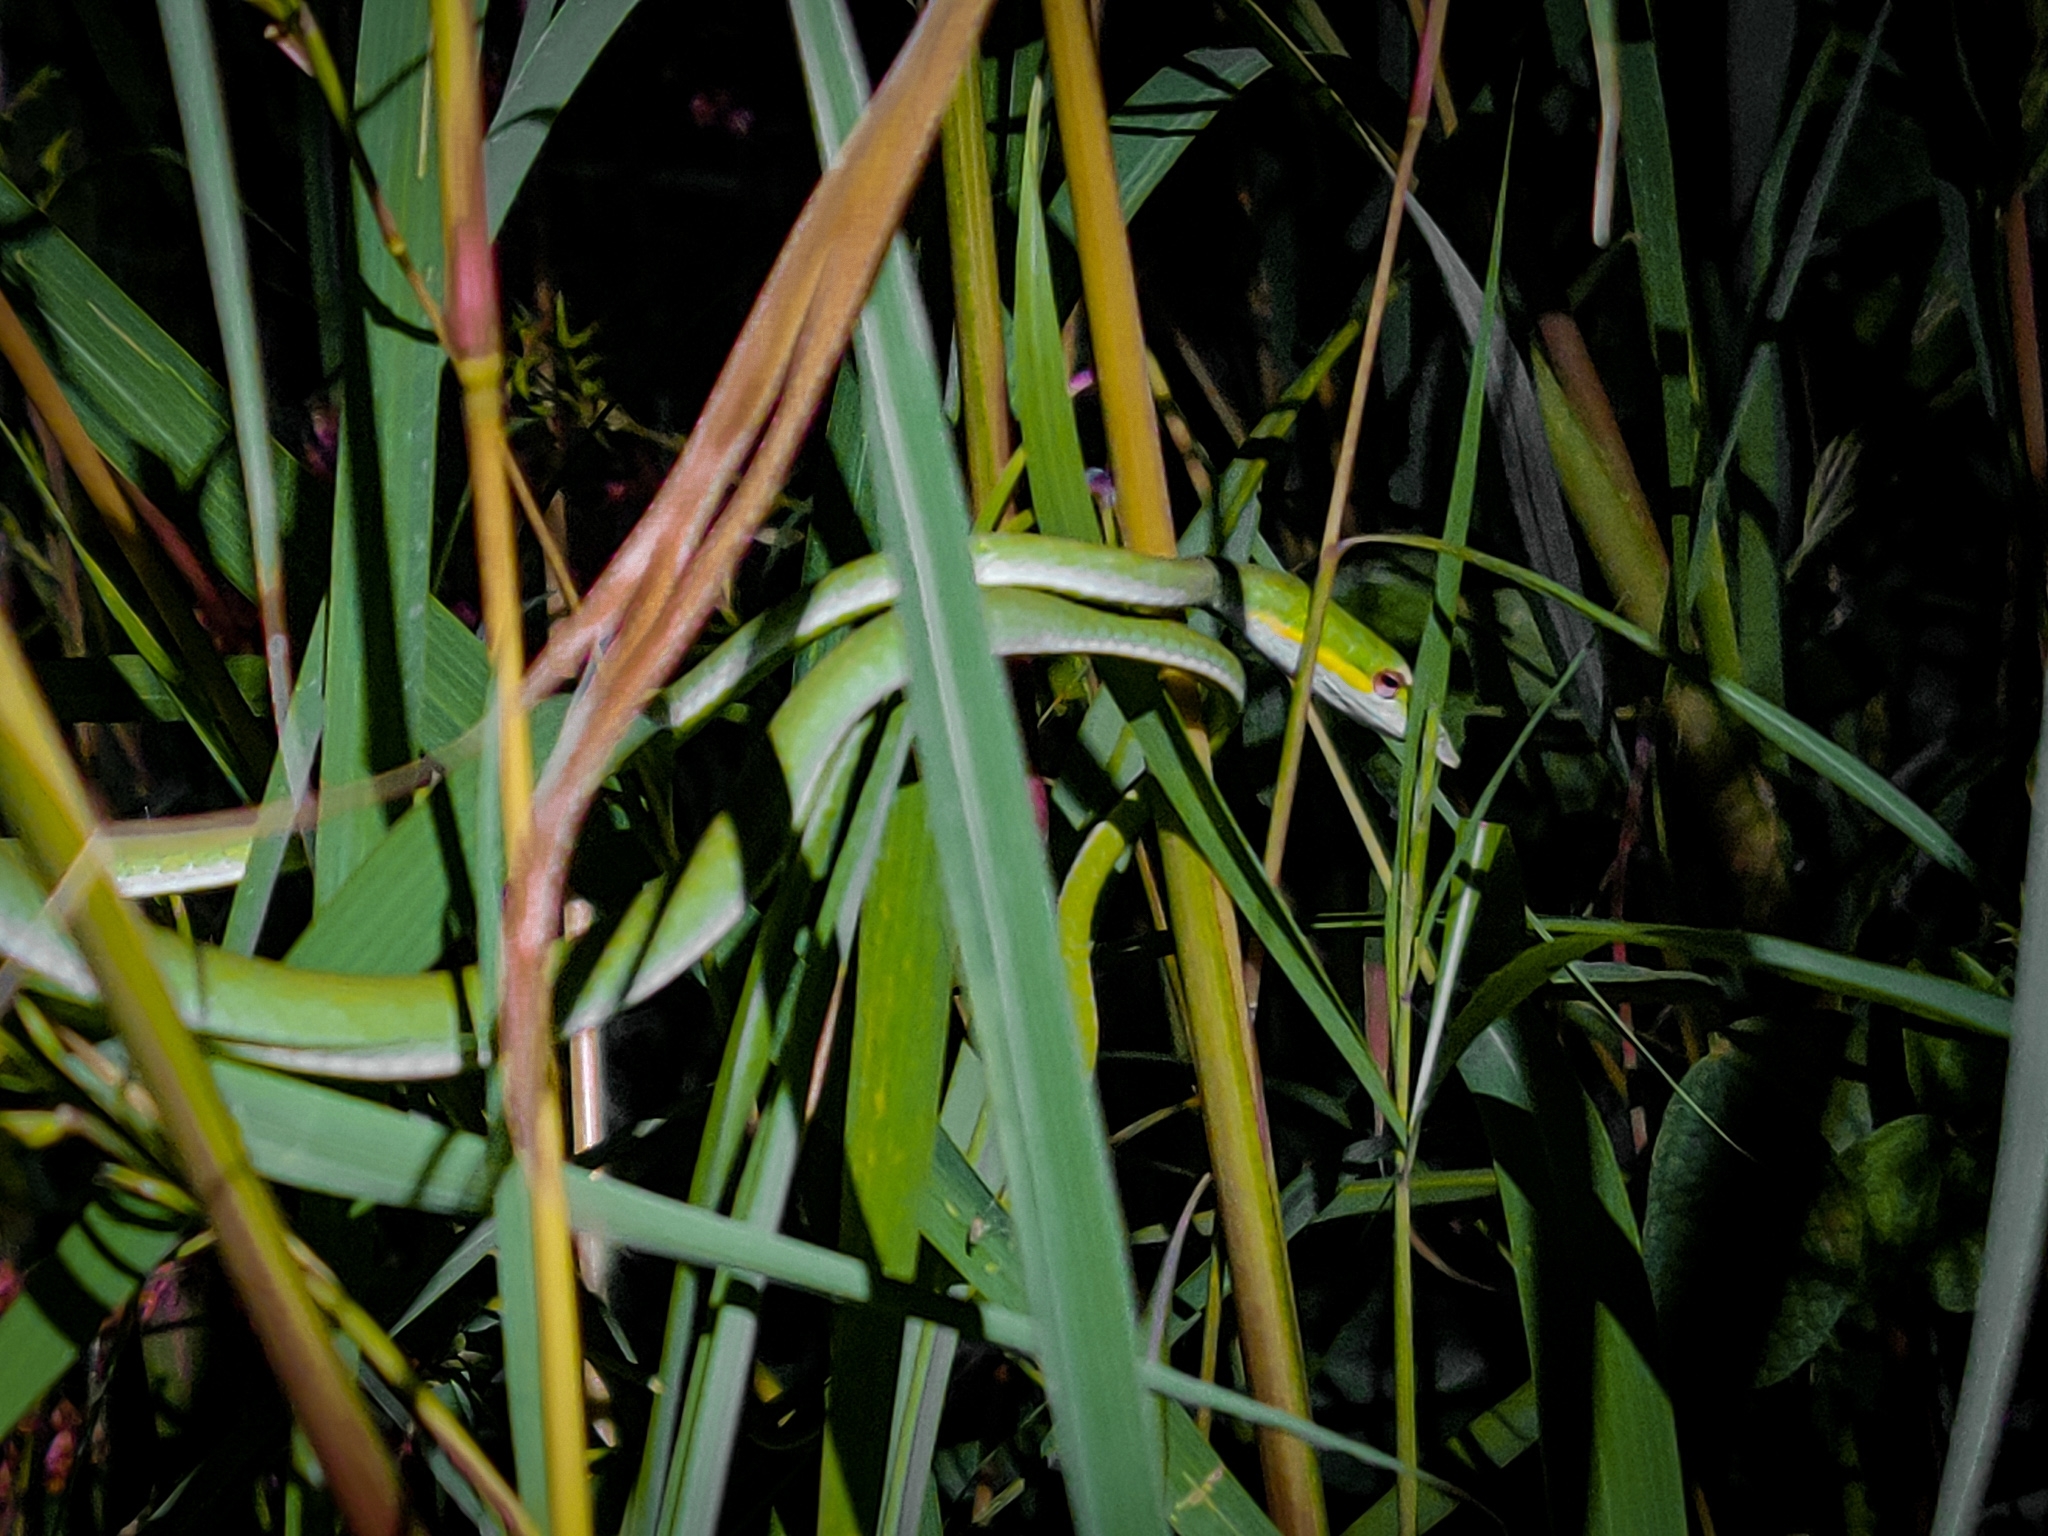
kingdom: Animalia
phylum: Chordata
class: Squamata
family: Colubridae
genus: Ahaetulla
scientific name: Ahaetulla oxyrhyncha
